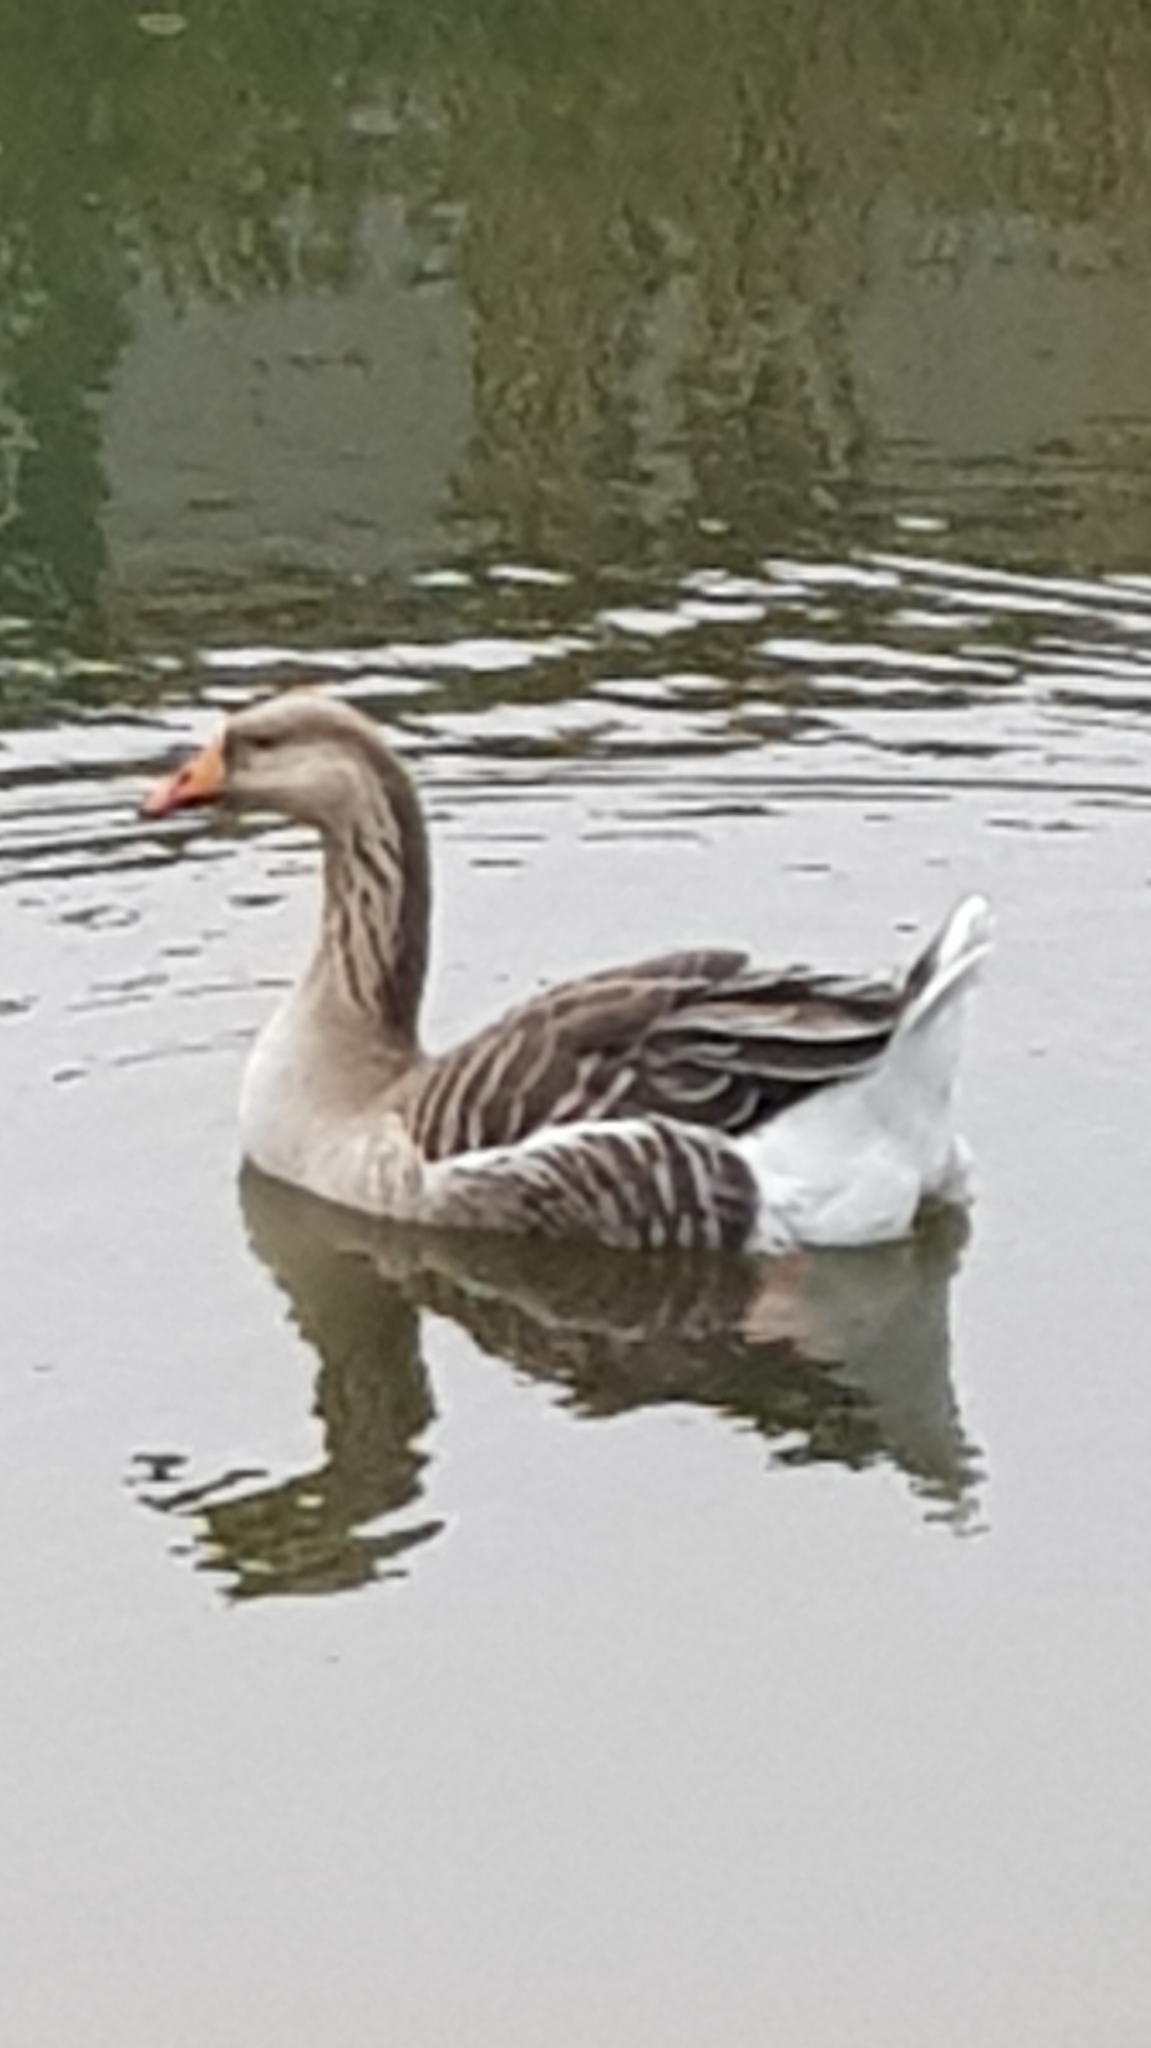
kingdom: Animalia
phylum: Chordata
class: Aves
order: Anseriformes
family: Anatidae
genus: Anser
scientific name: Anser
